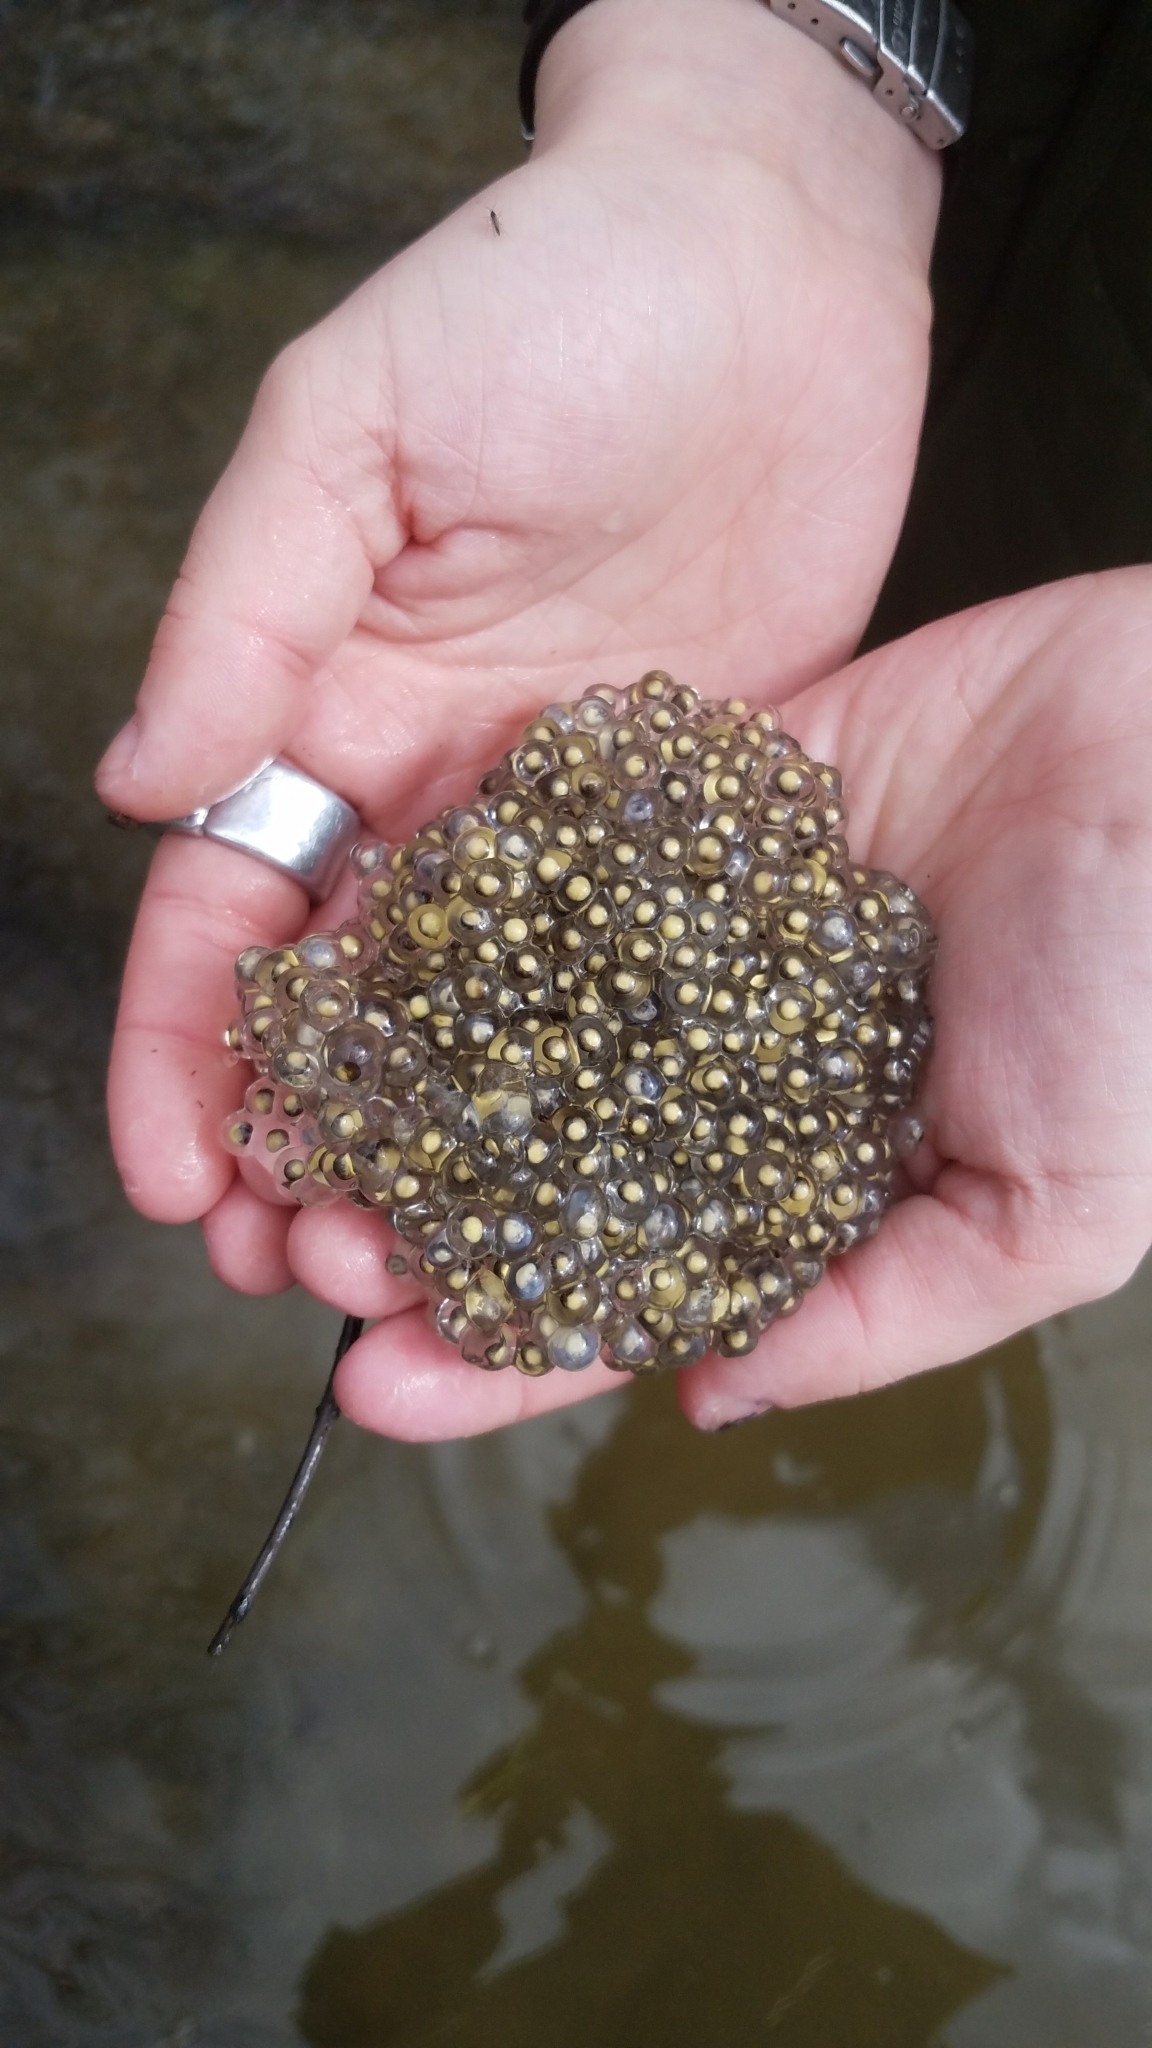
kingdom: Animalia
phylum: Chordata
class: Amphibia
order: Anura
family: Ranidae
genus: Lithobates
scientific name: Lithobates sylvaticus
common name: Wood frog
